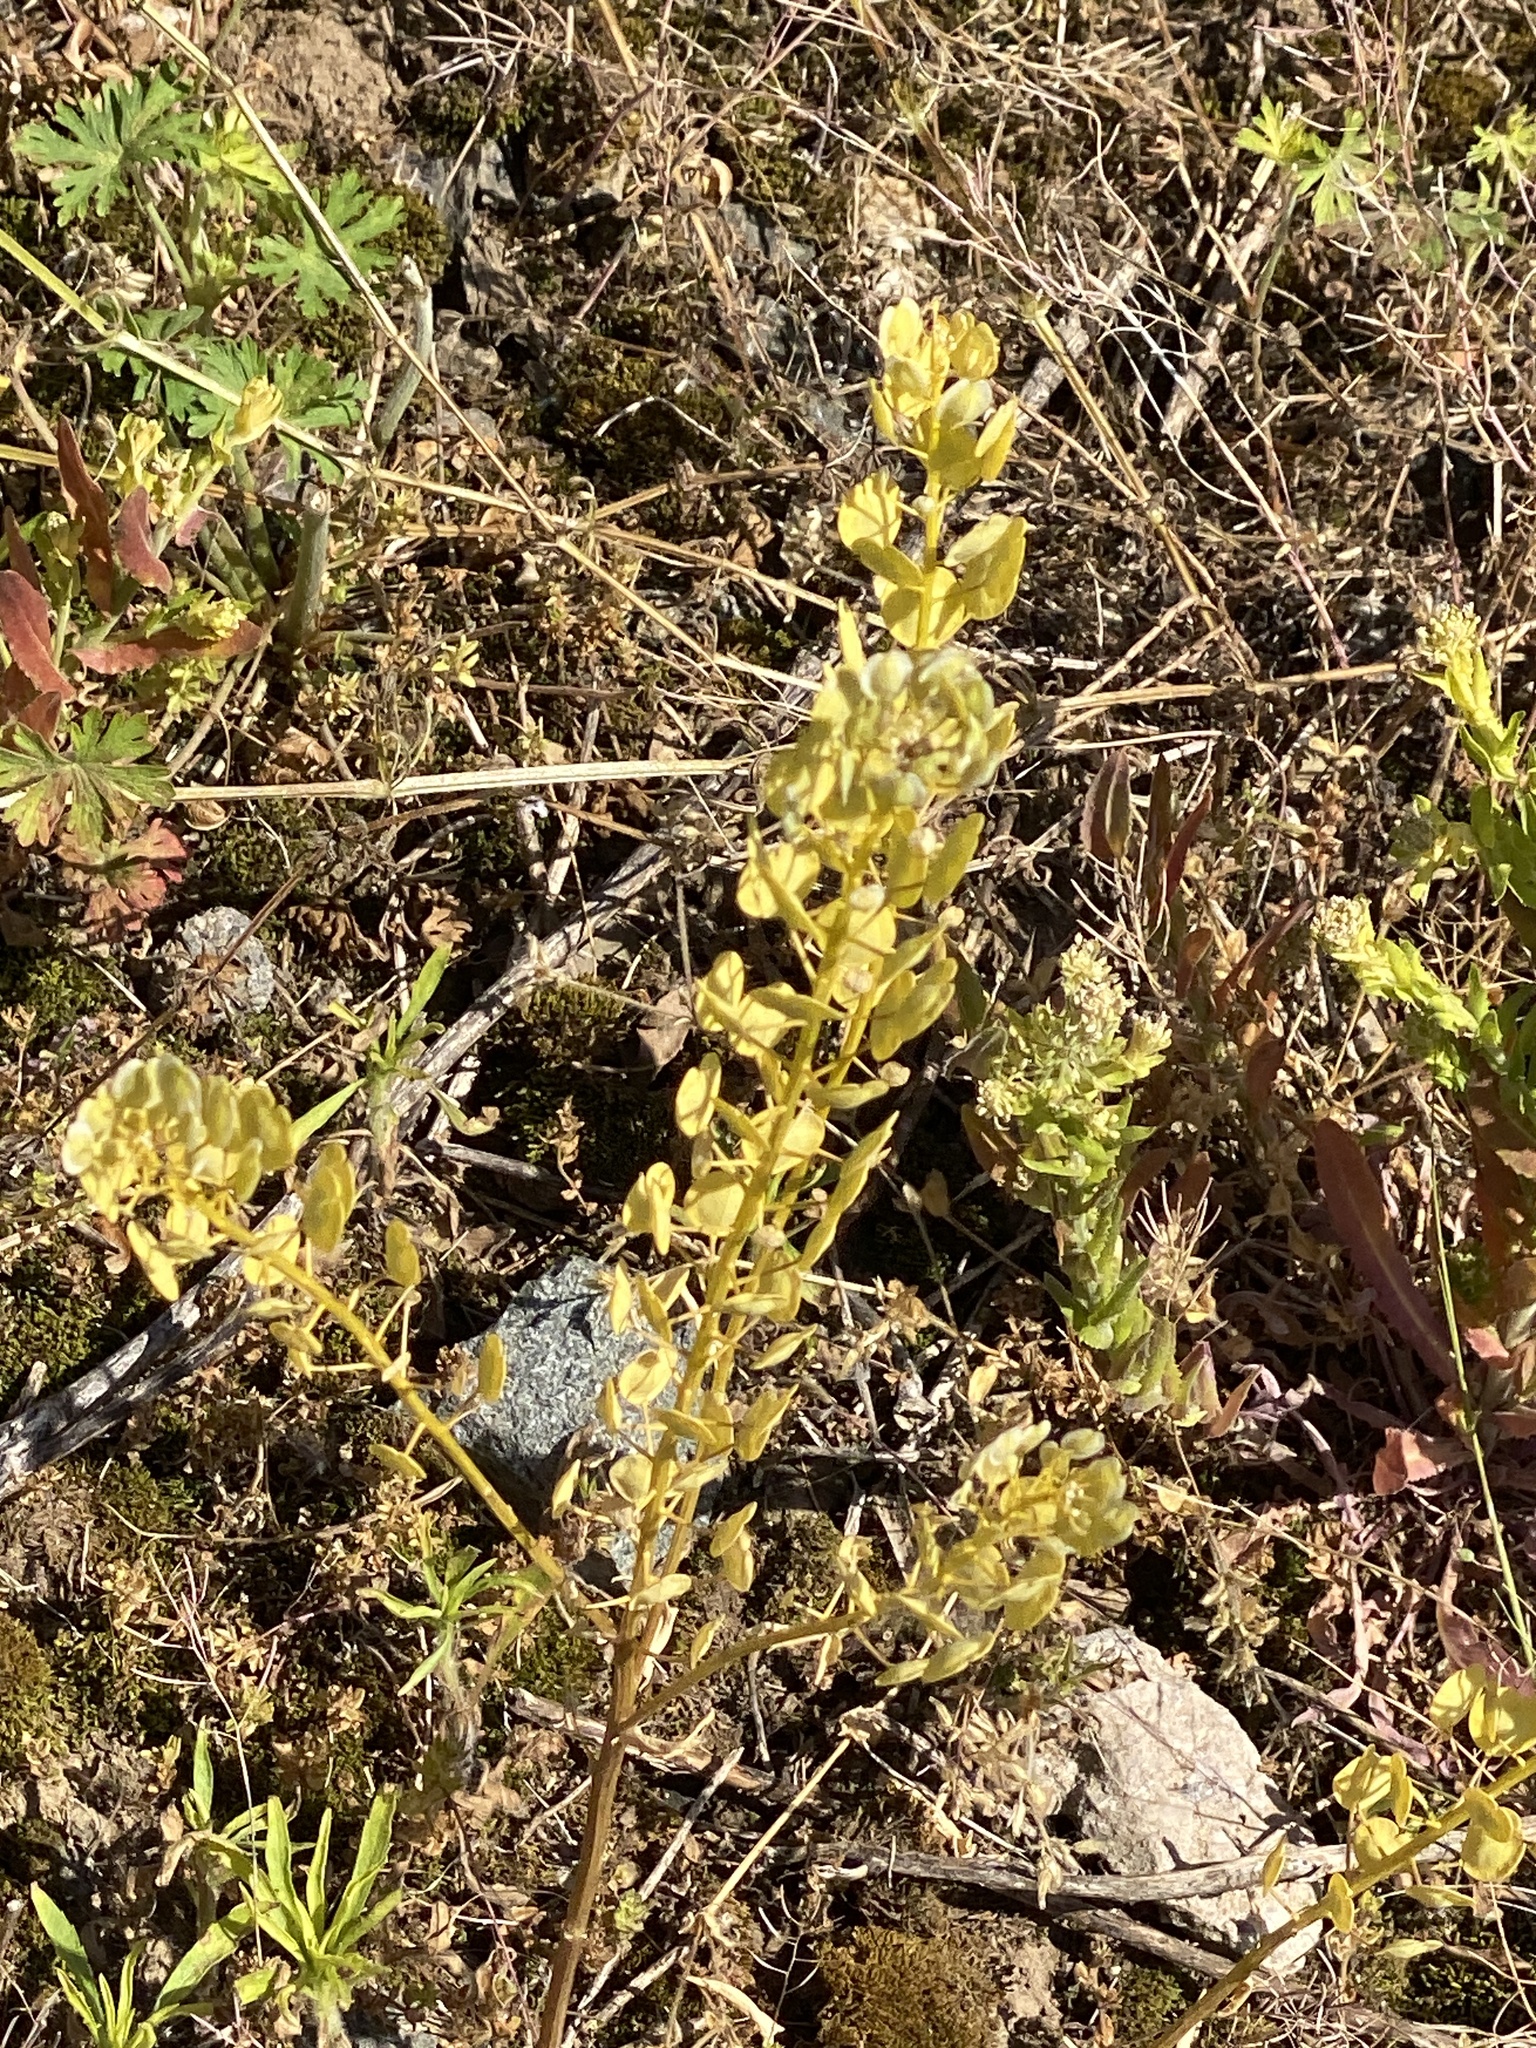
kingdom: Plantae
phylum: Tracheophyta
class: Magnoliopsida
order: Brassicales
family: Brassicaceae
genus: Thlaspi
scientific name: Thlaspi arvense
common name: Field pennycress
